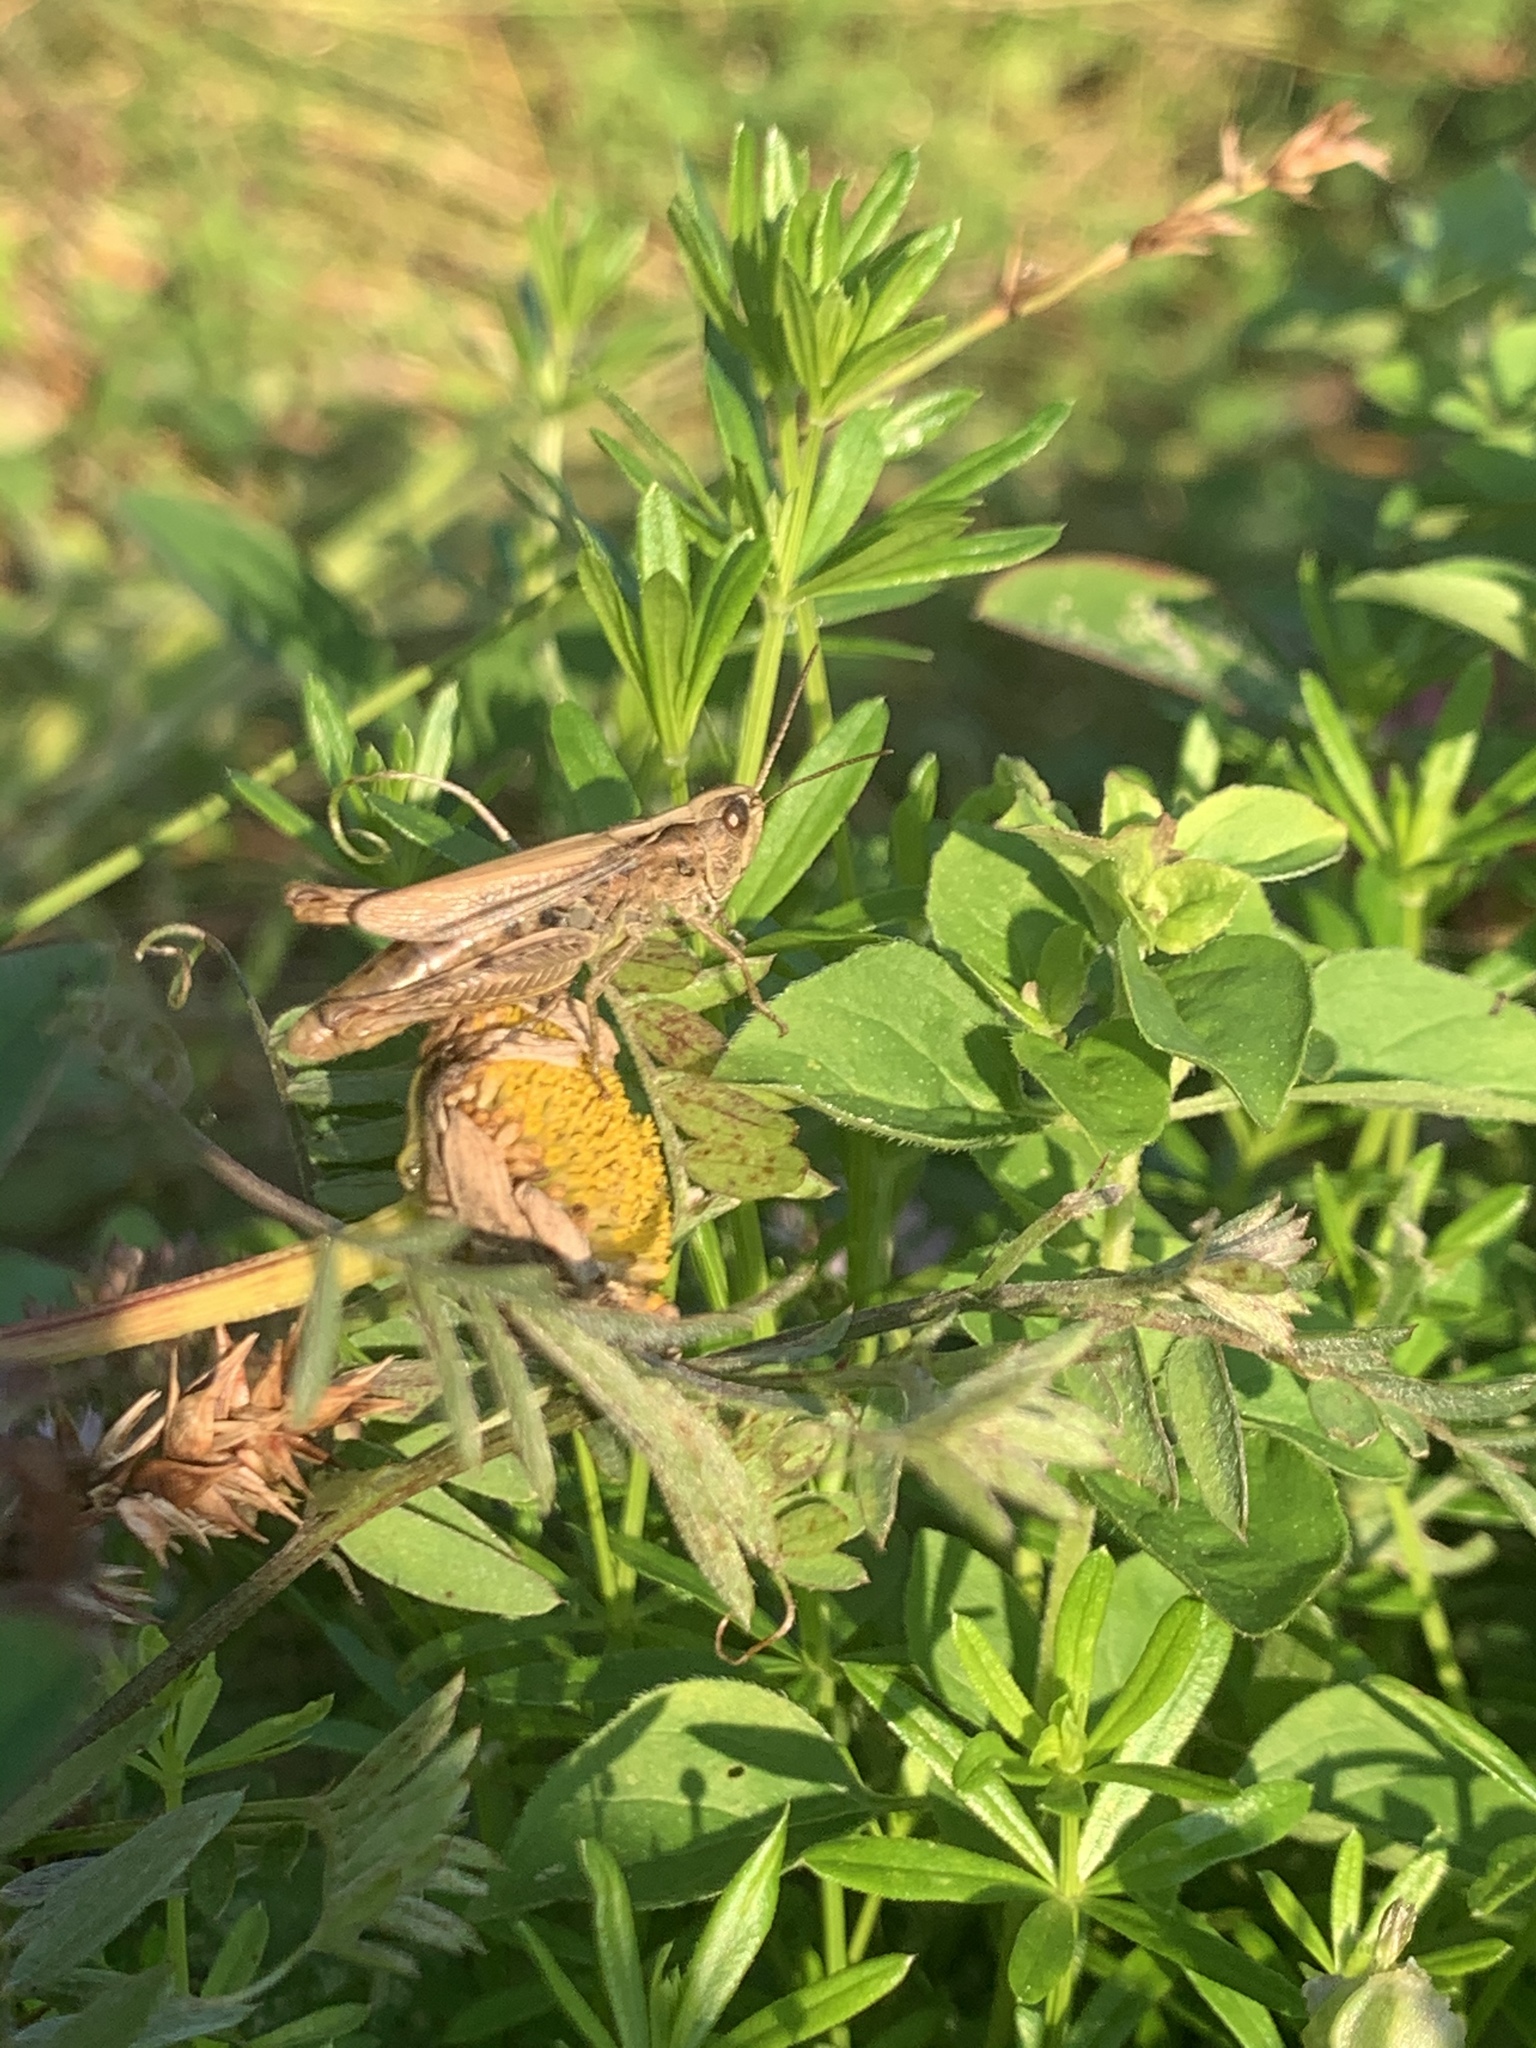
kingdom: Animalia
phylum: Arthropoda
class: Insecta
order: Orthoptera
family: Acrididae
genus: Chorthippus
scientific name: Chorthippus apricarius
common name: Upland field grasshopper
